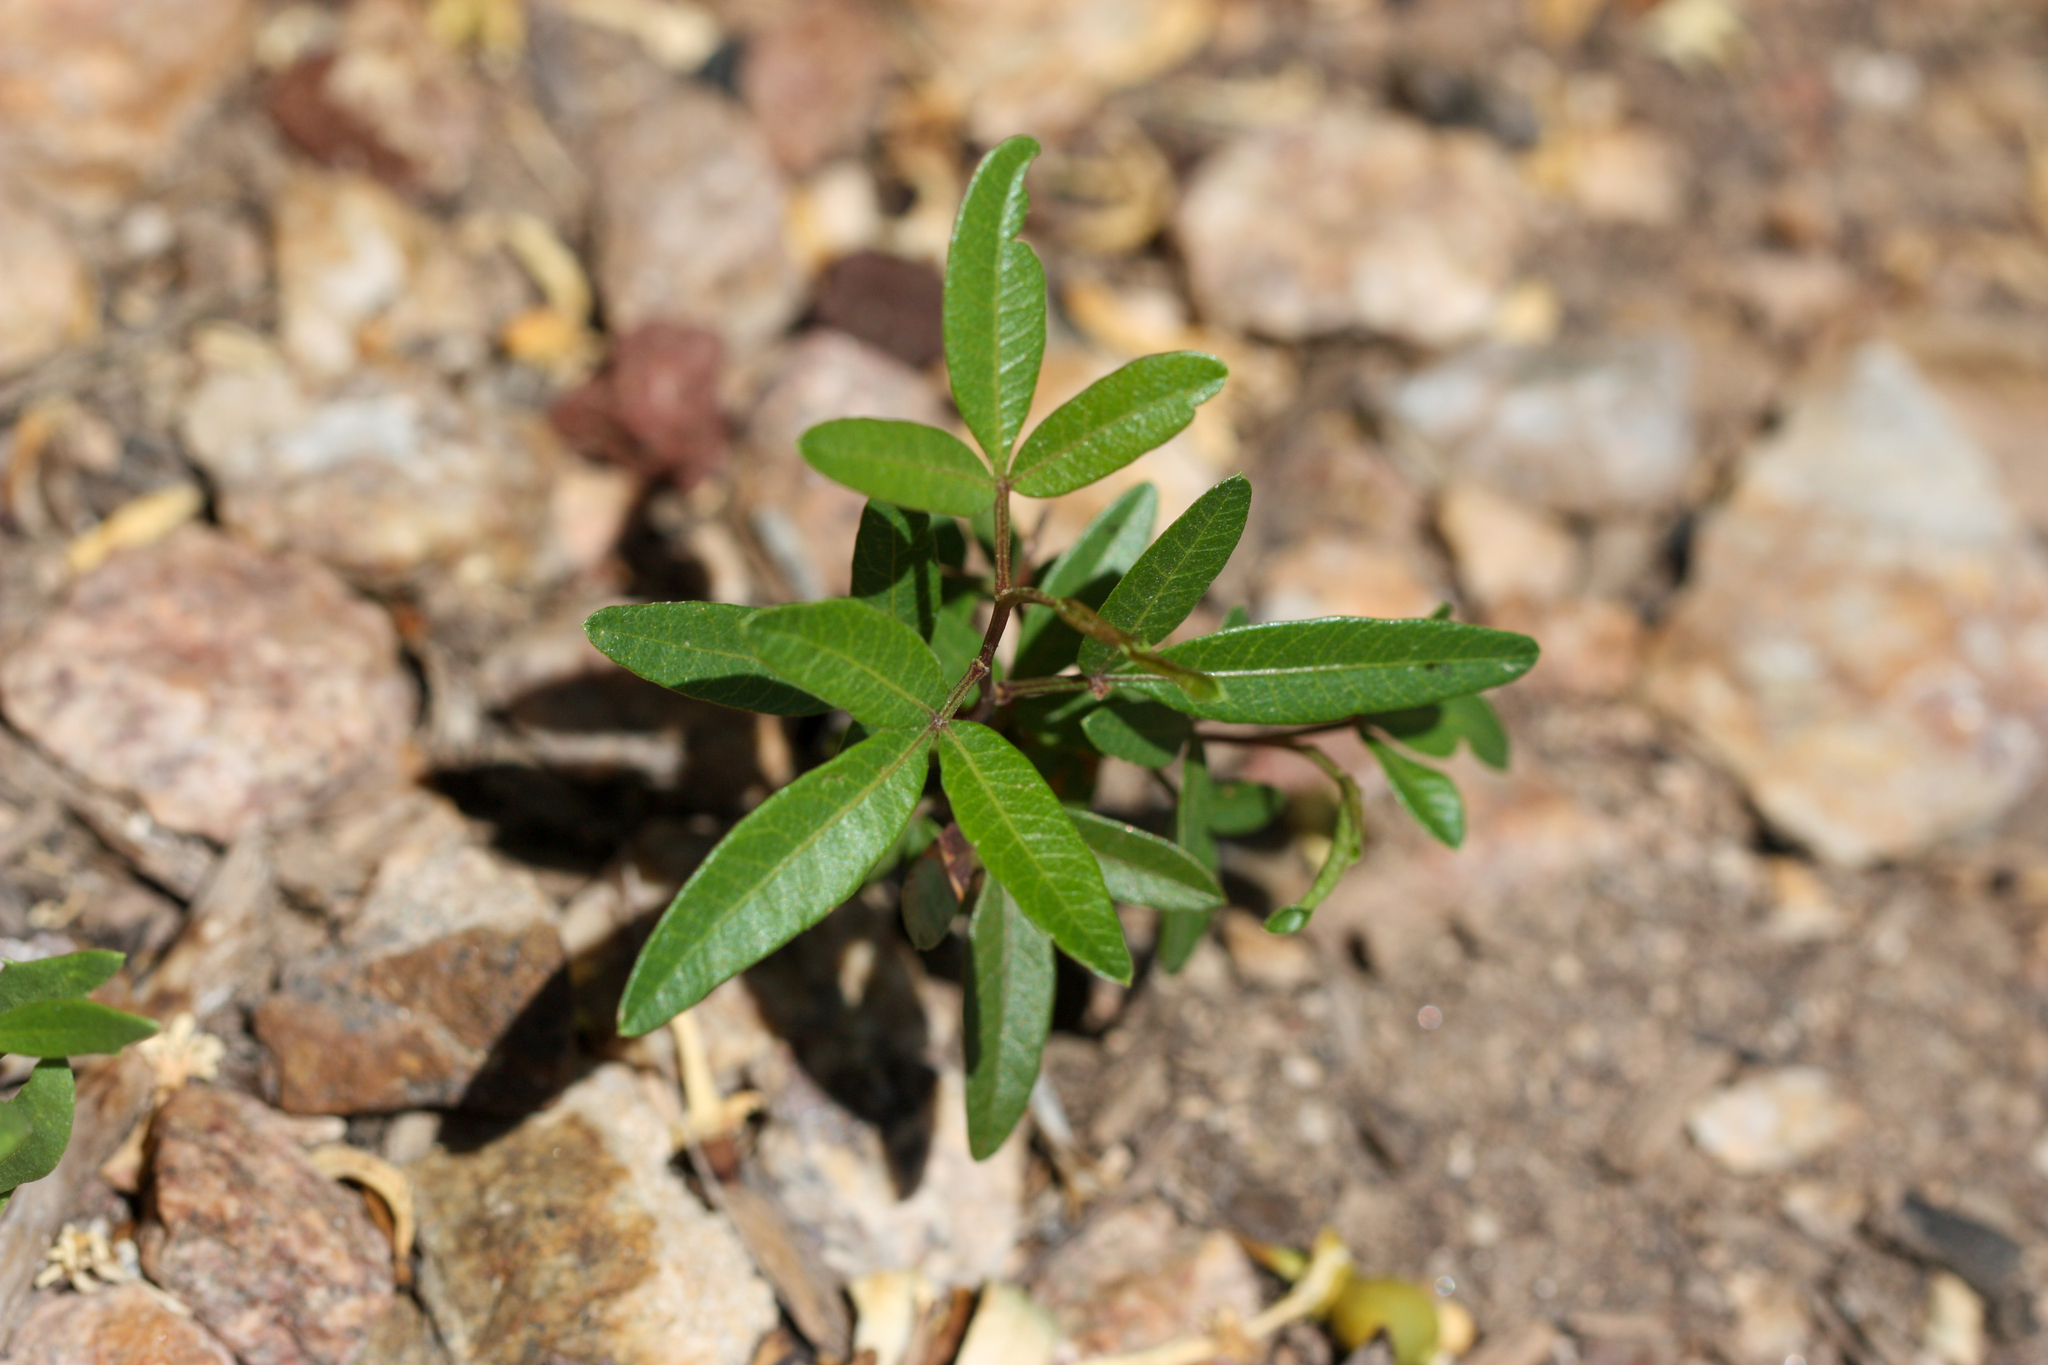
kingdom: Plantae
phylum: Tracheophyta
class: Magnoliopsida
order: Sapindales
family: Anacardiaceae
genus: Searsia
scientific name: Searsia lancea
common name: Cashew
